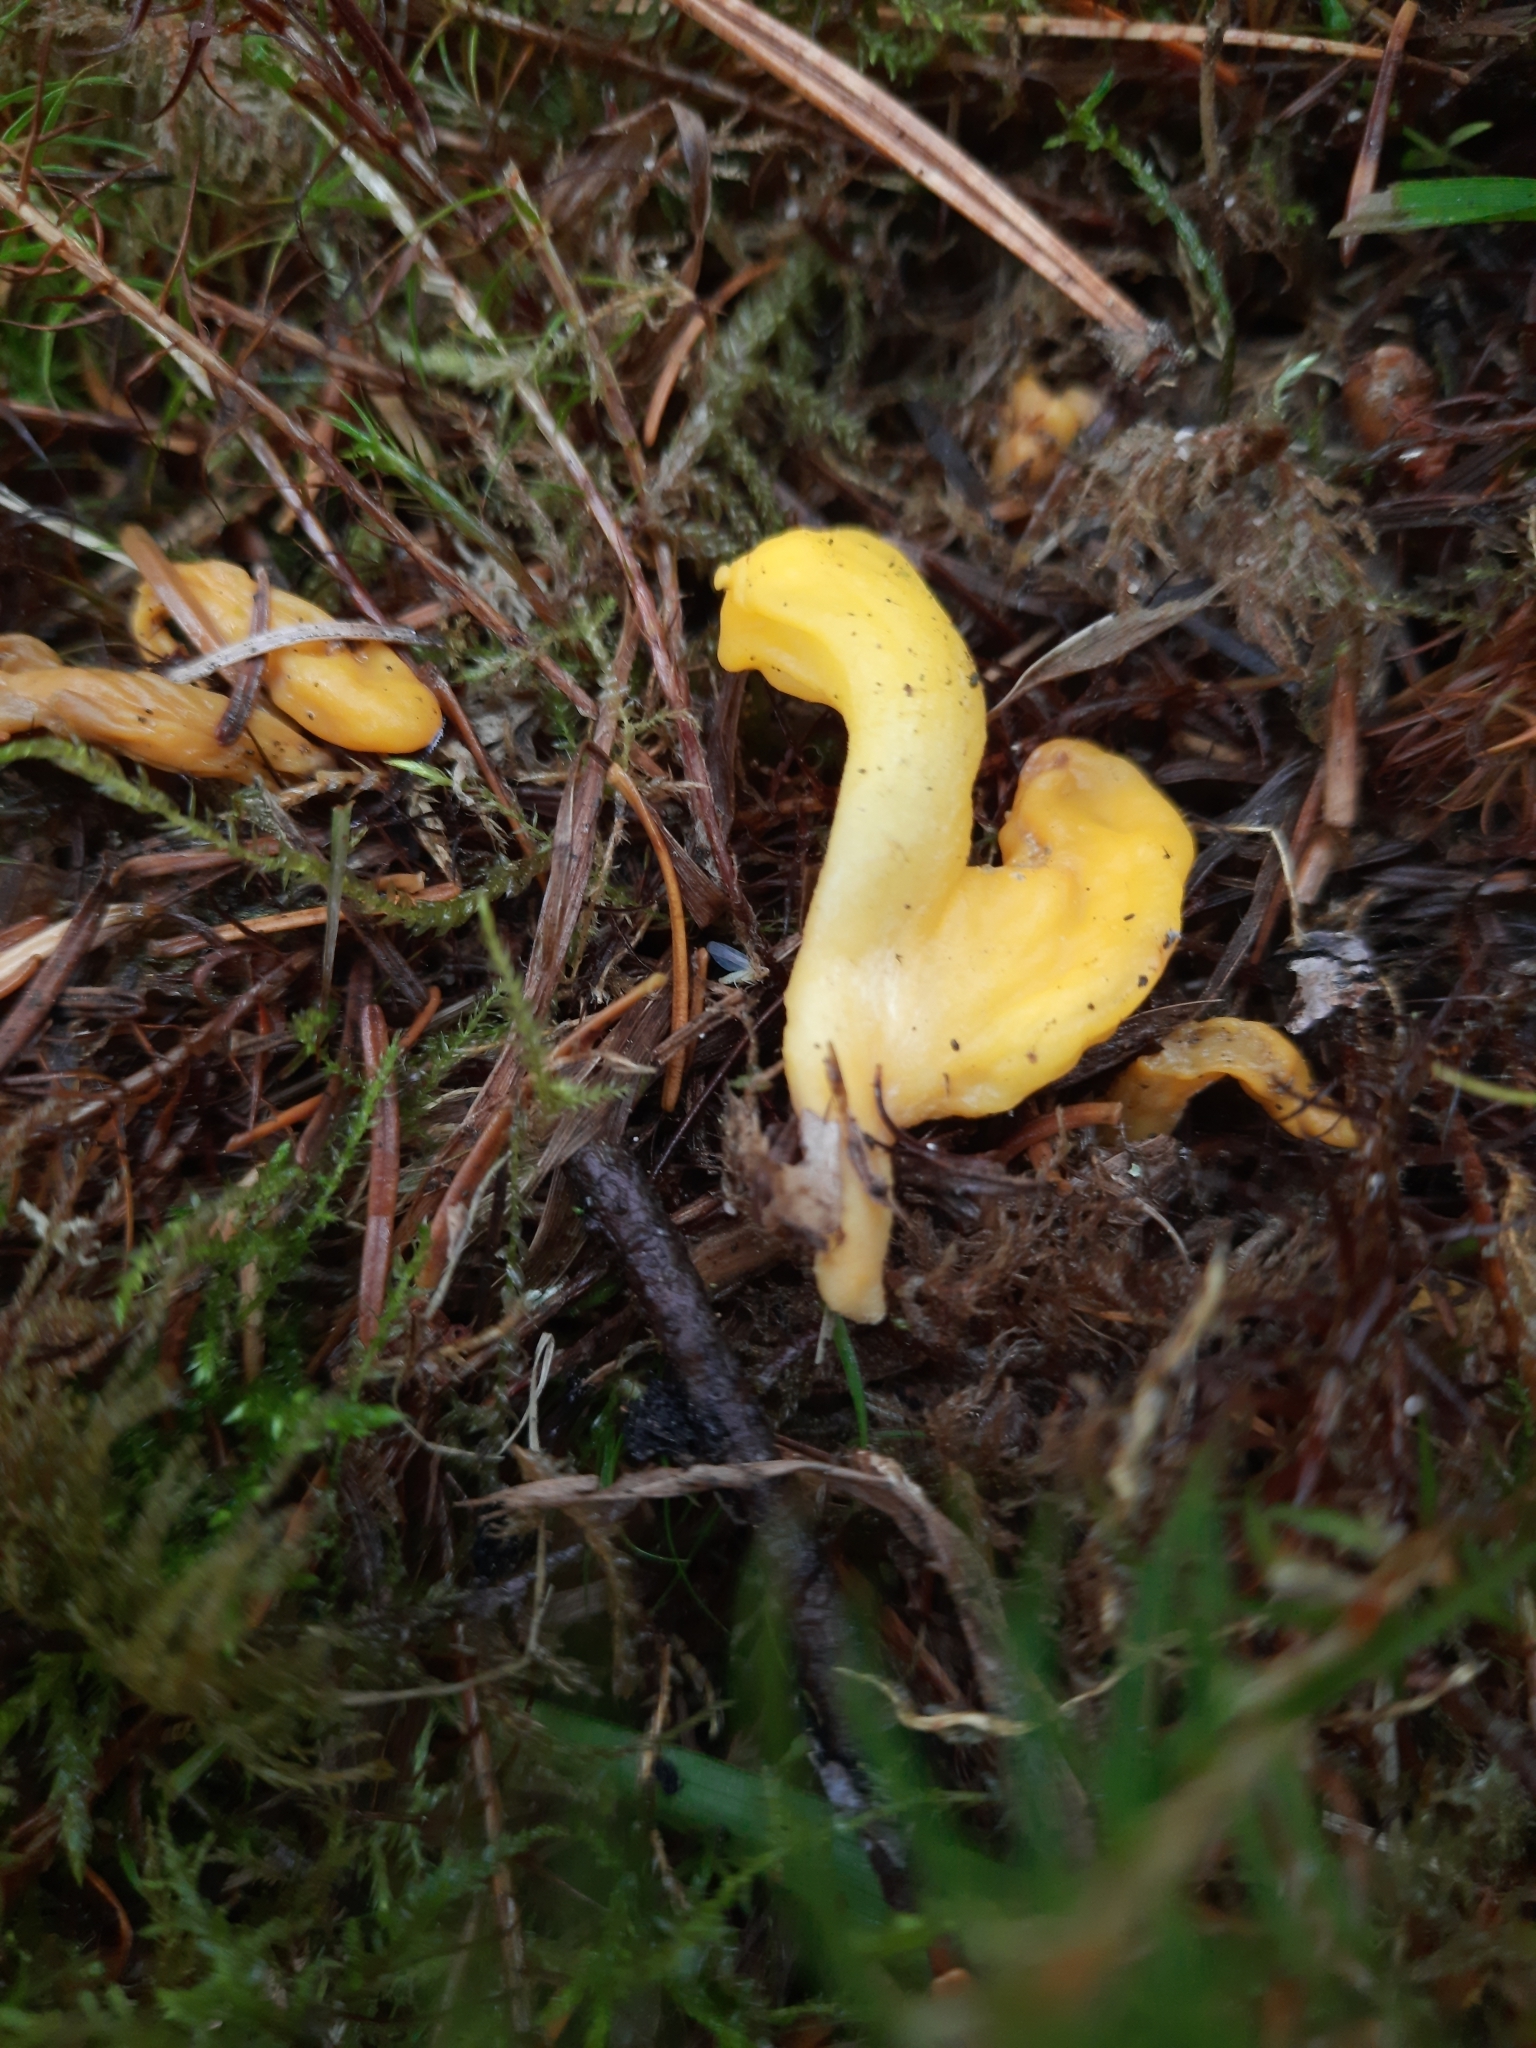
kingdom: Fungi
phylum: Ascomycota
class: Neolectomycetes
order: Neolectales
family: Neolectaceae
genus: Neolecta
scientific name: Neolecta vitellina
